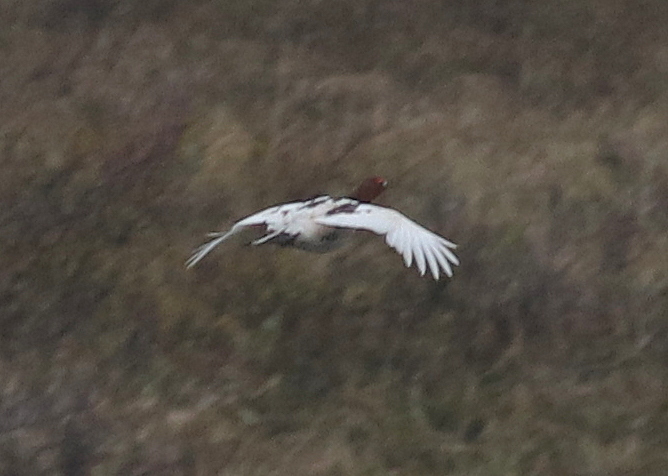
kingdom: Animalia
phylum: Chordata
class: Aves
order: Galliformes
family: Phasianidae
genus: Lagopus
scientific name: Lagopus lagopus
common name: Willow ptarmigan
